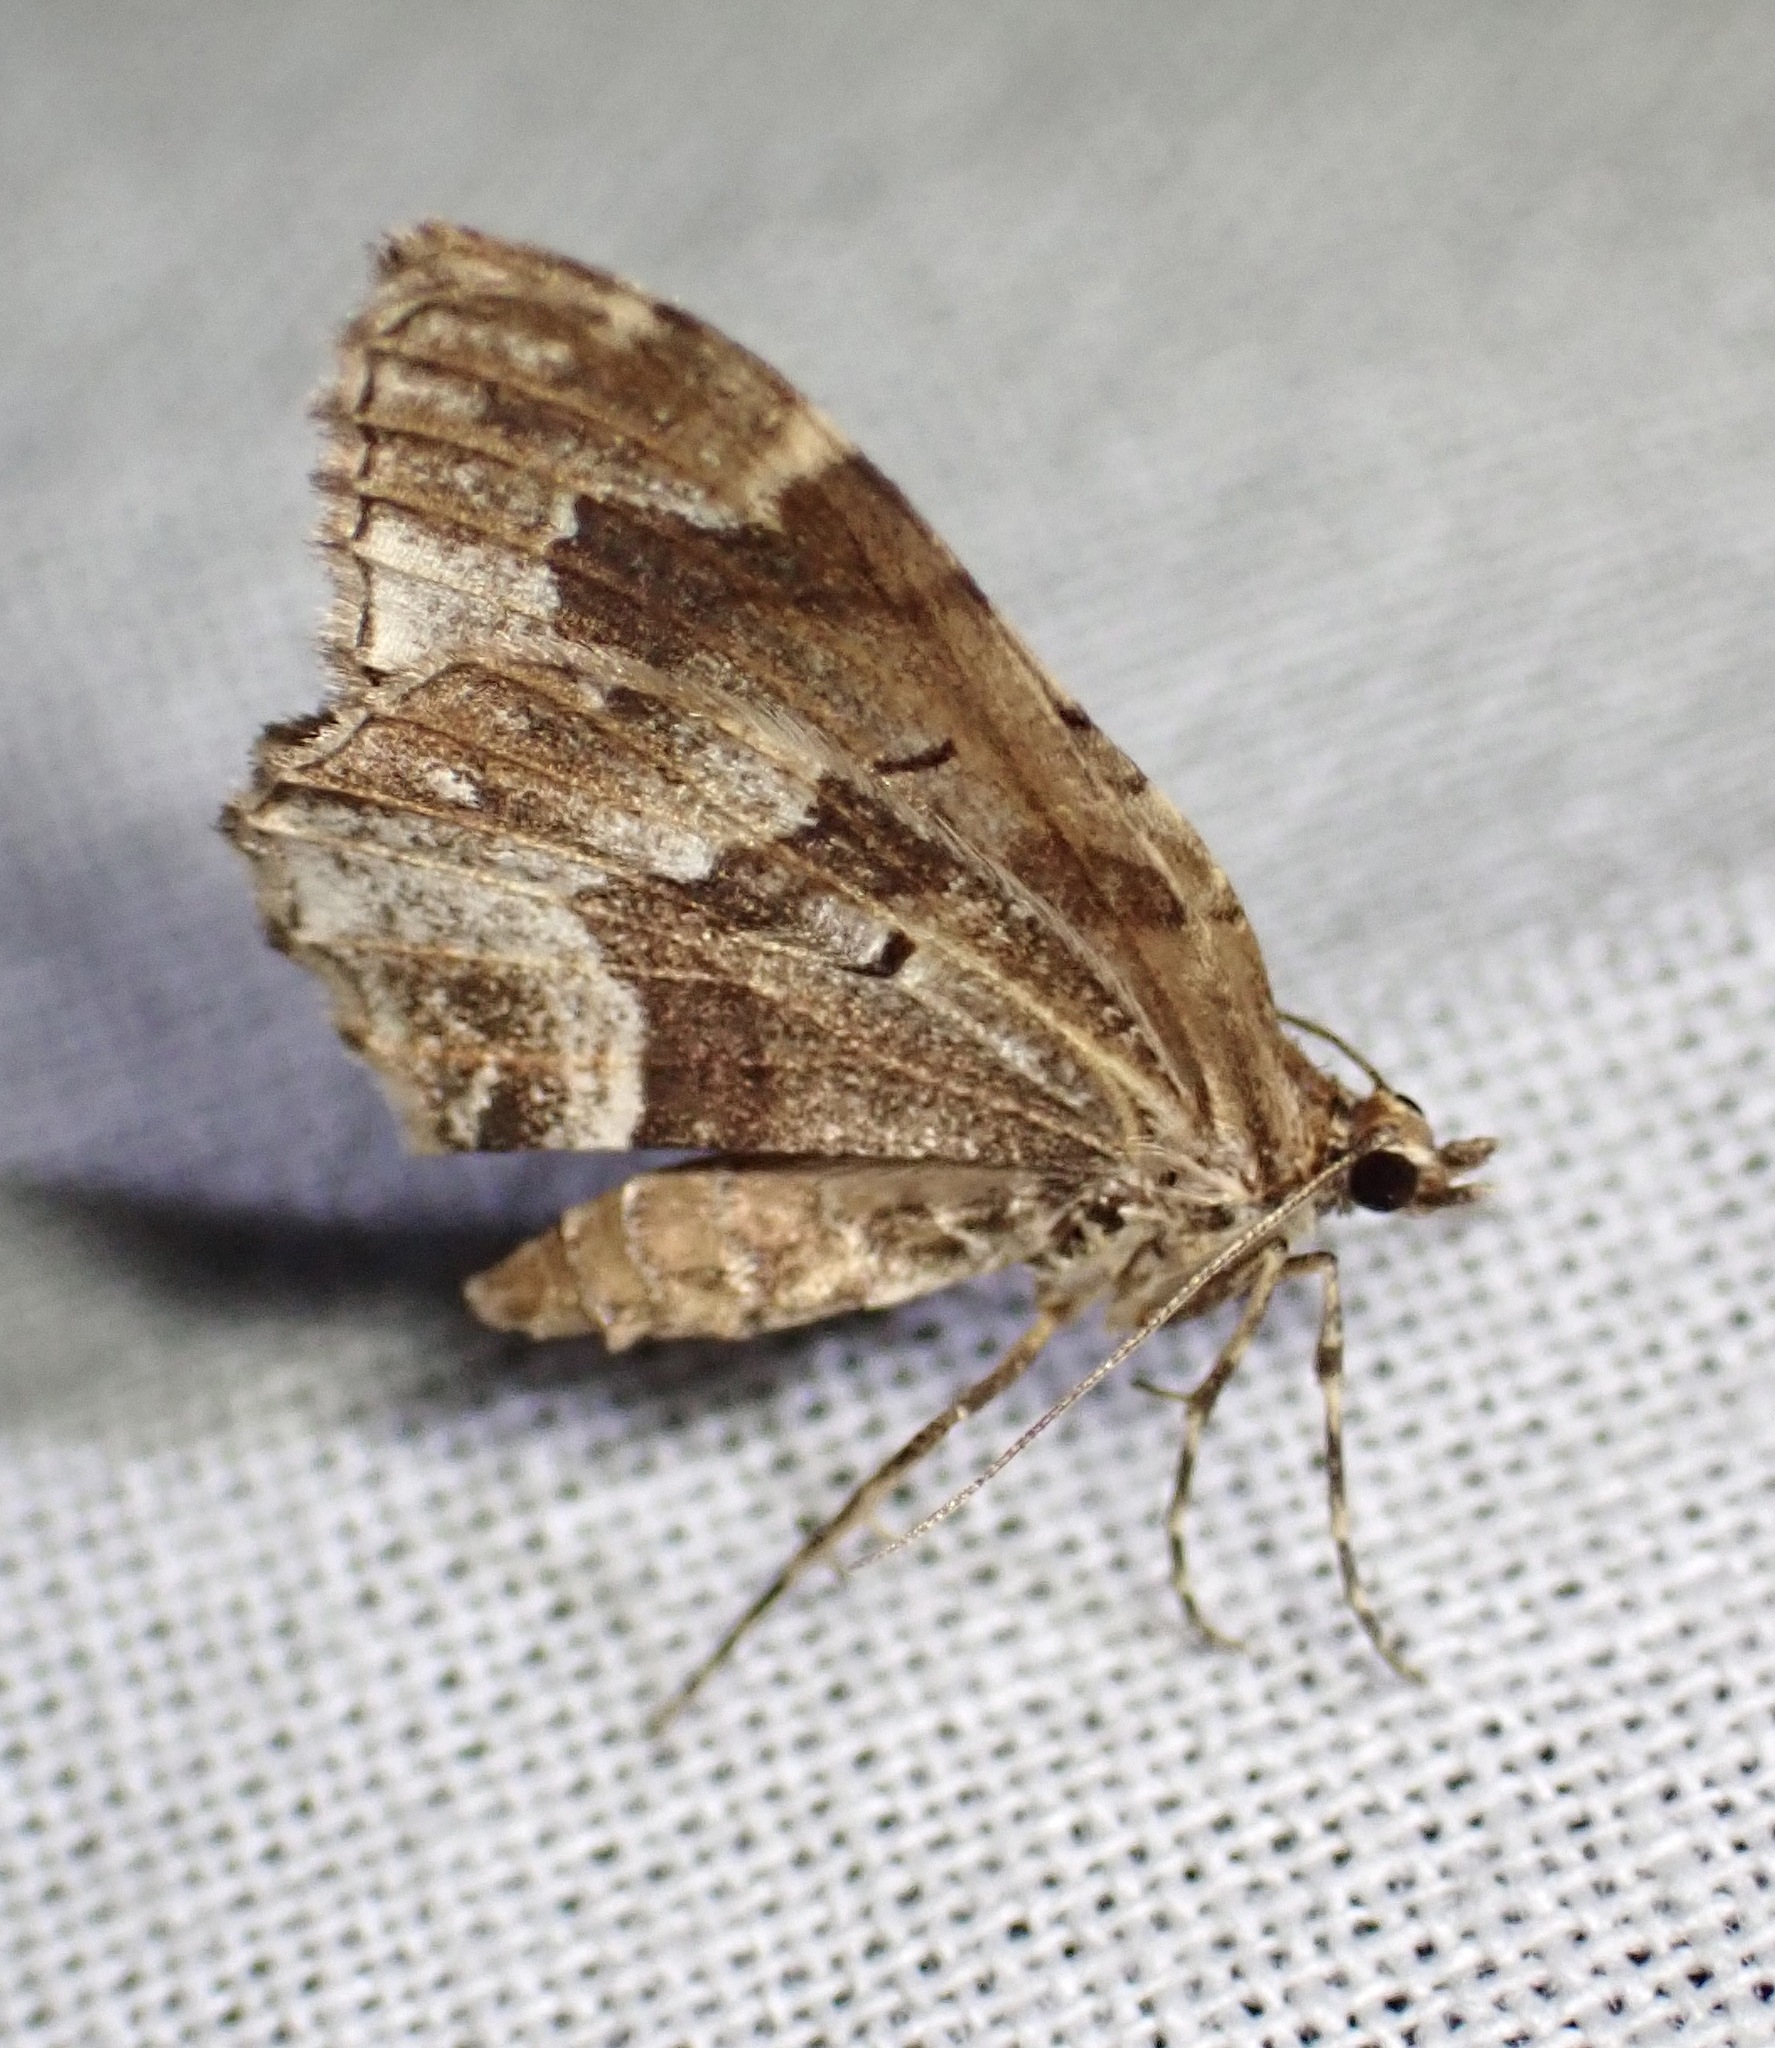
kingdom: Animalia
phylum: Arthropoda
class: Insecta
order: Lepidoptera
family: Geometridae
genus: Ceratodalia
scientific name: Ceratodalia gueneata
